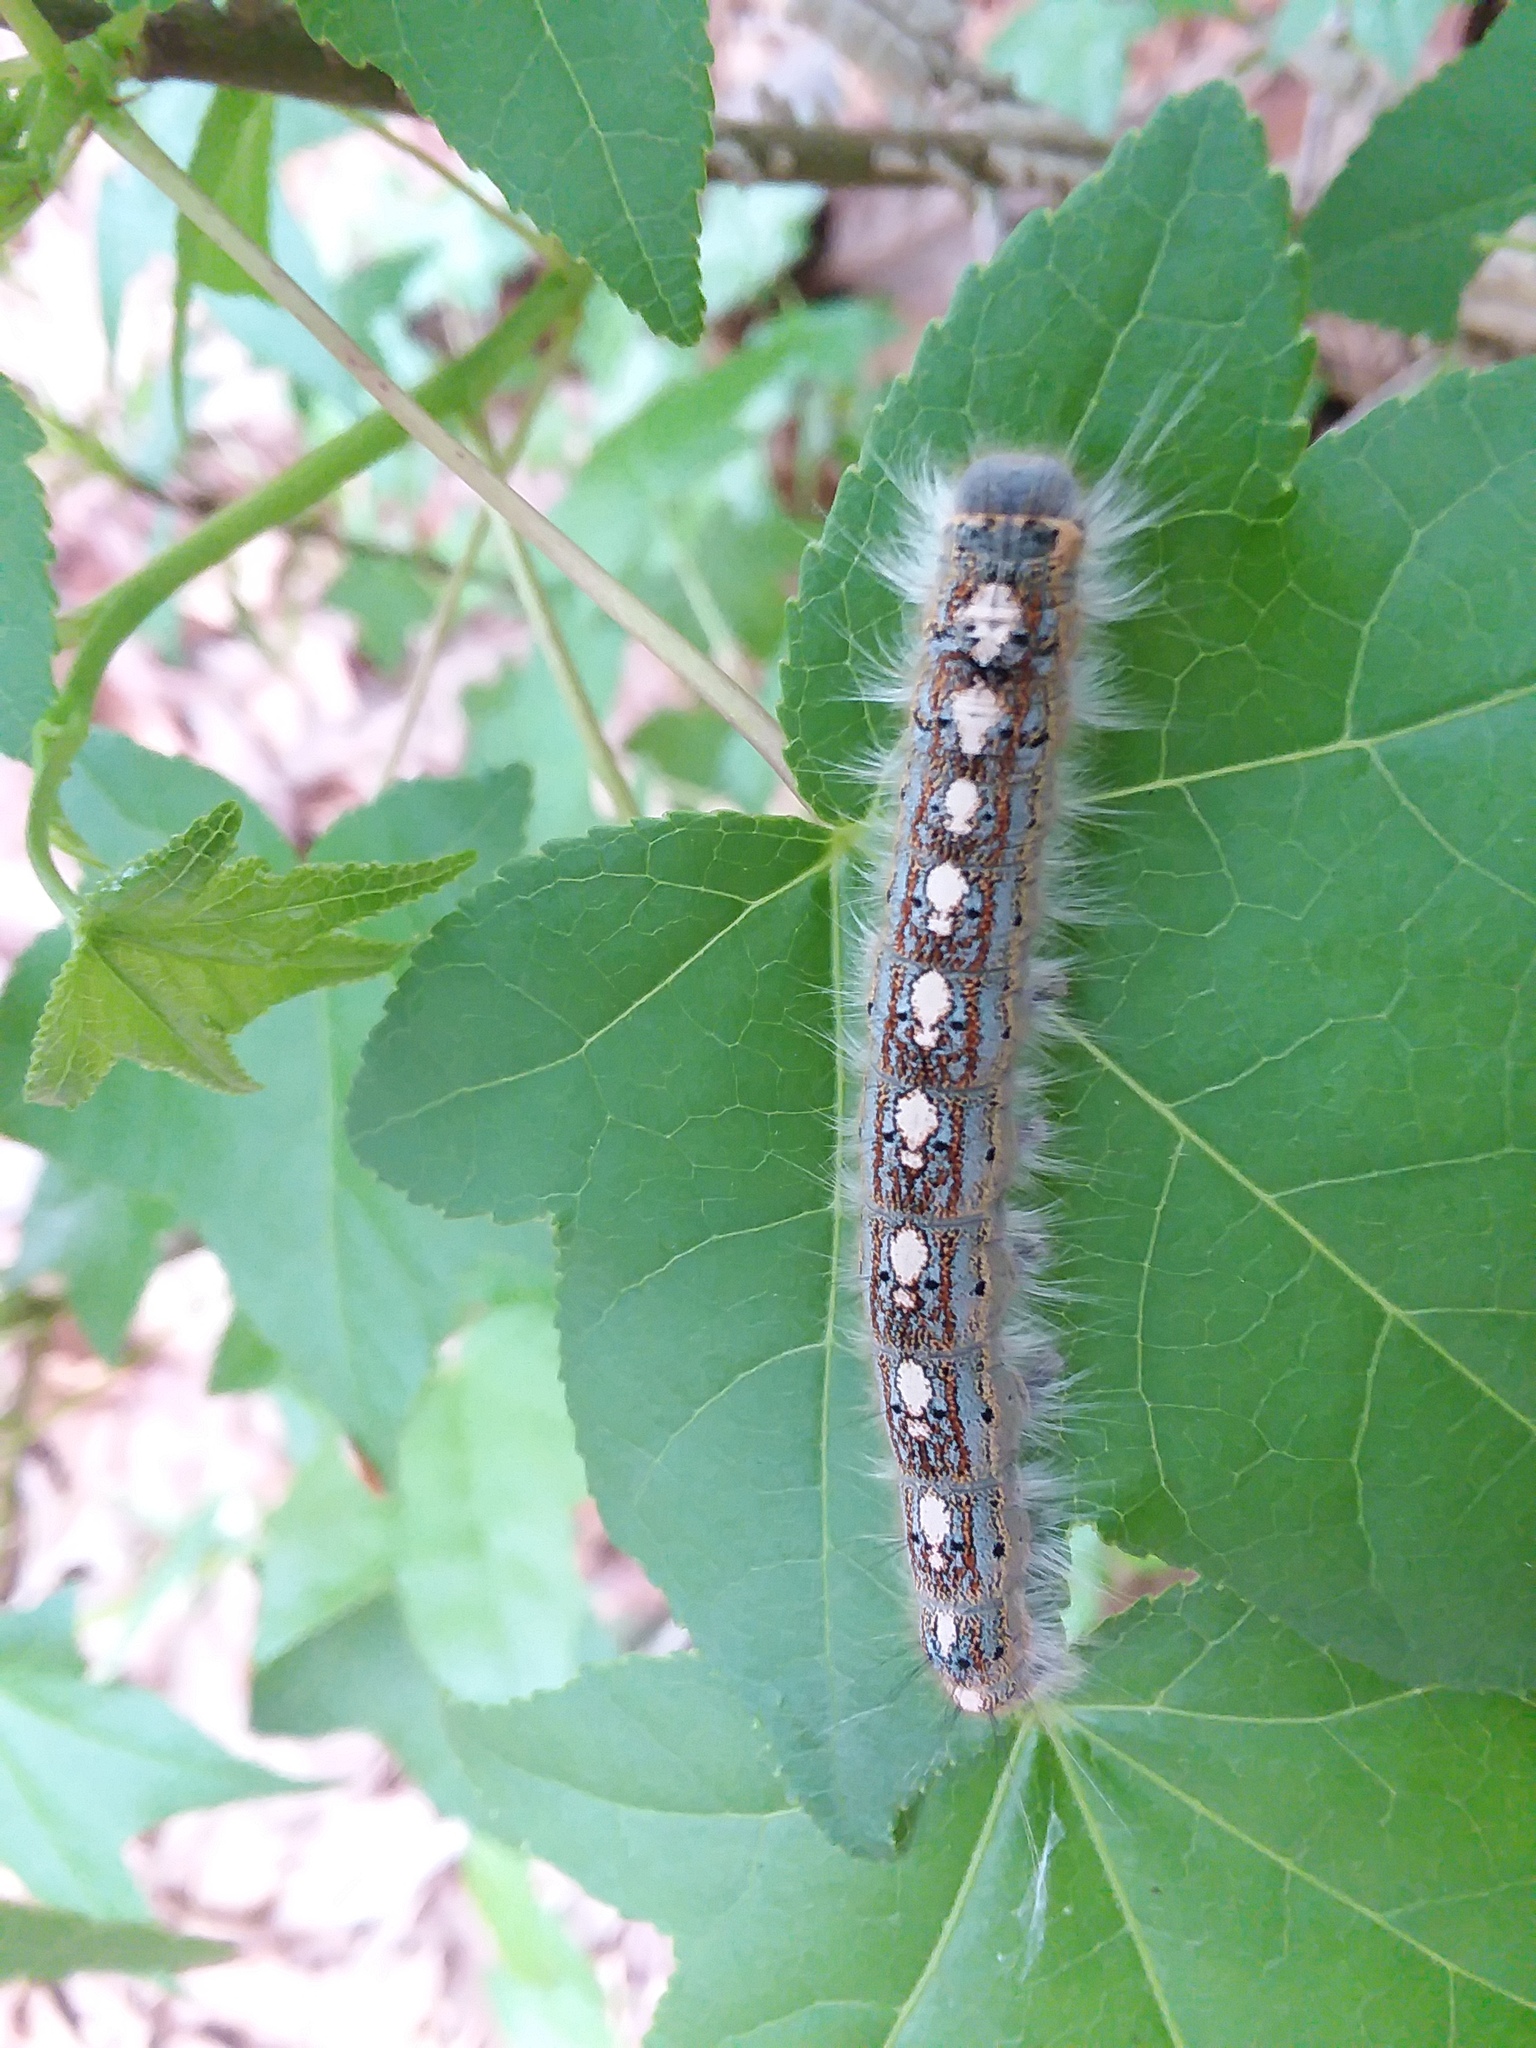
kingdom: Animalia
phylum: Arthropoda
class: Insecta
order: Lepidoptera
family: Lasiocampidae
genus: Malacosoma
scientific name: Malacosoma disstria
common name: Forest tent caterpillar
